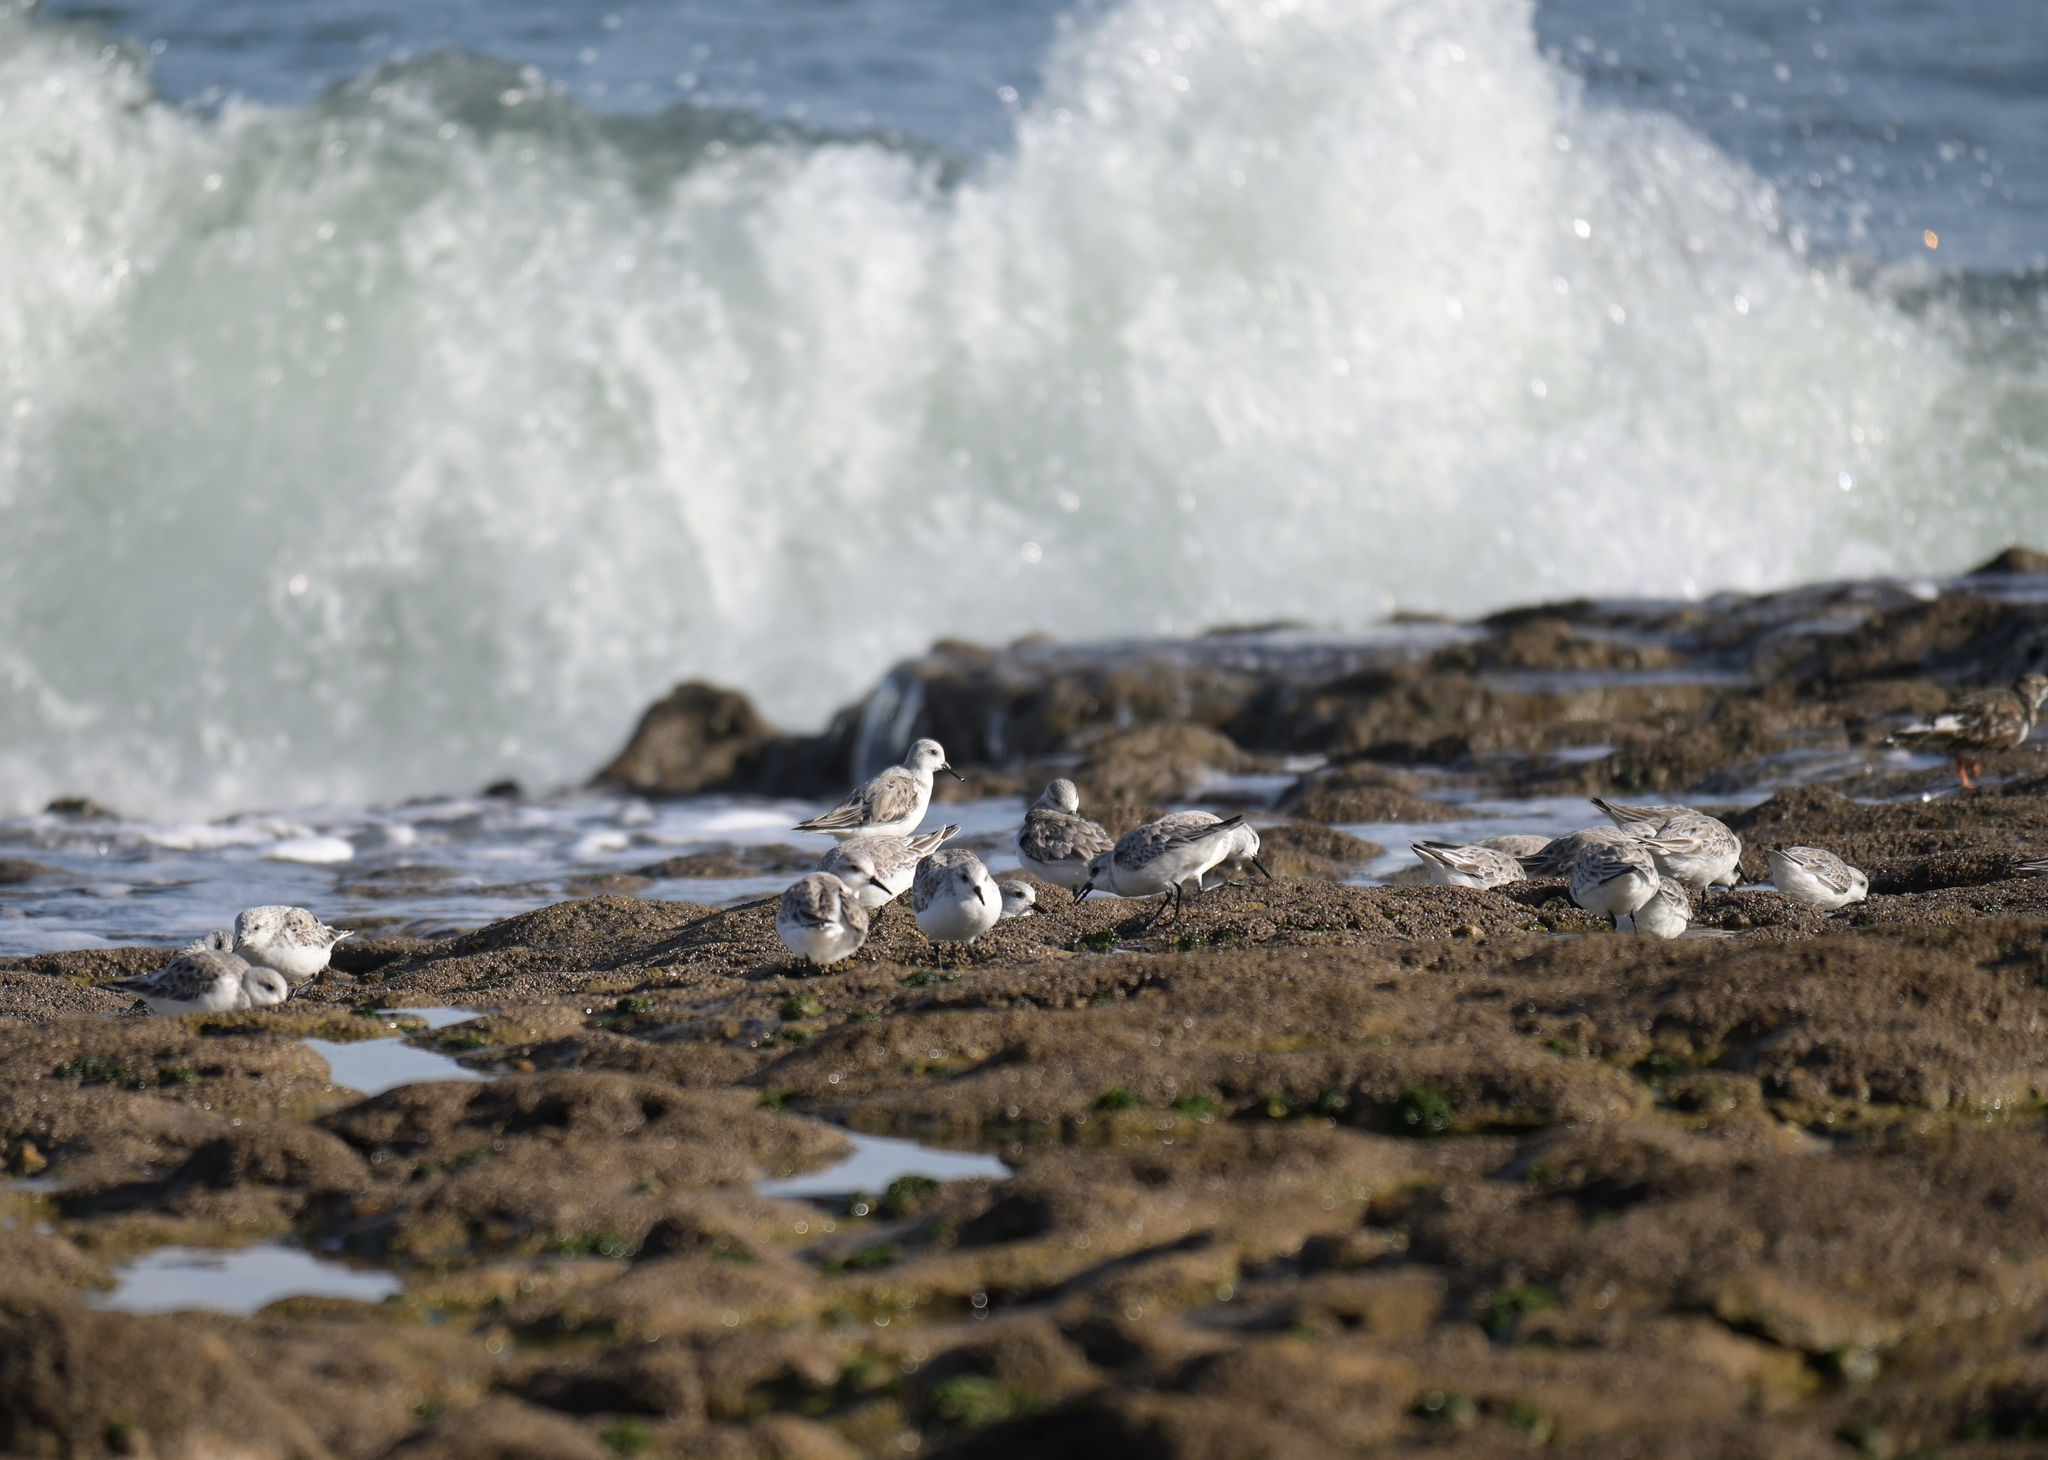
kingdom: Animalia
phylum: Chordata
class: Aves
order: Charadriiformes
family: Scolopacidae
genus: Calidris
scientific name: Calidris alba
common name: Sanderling
